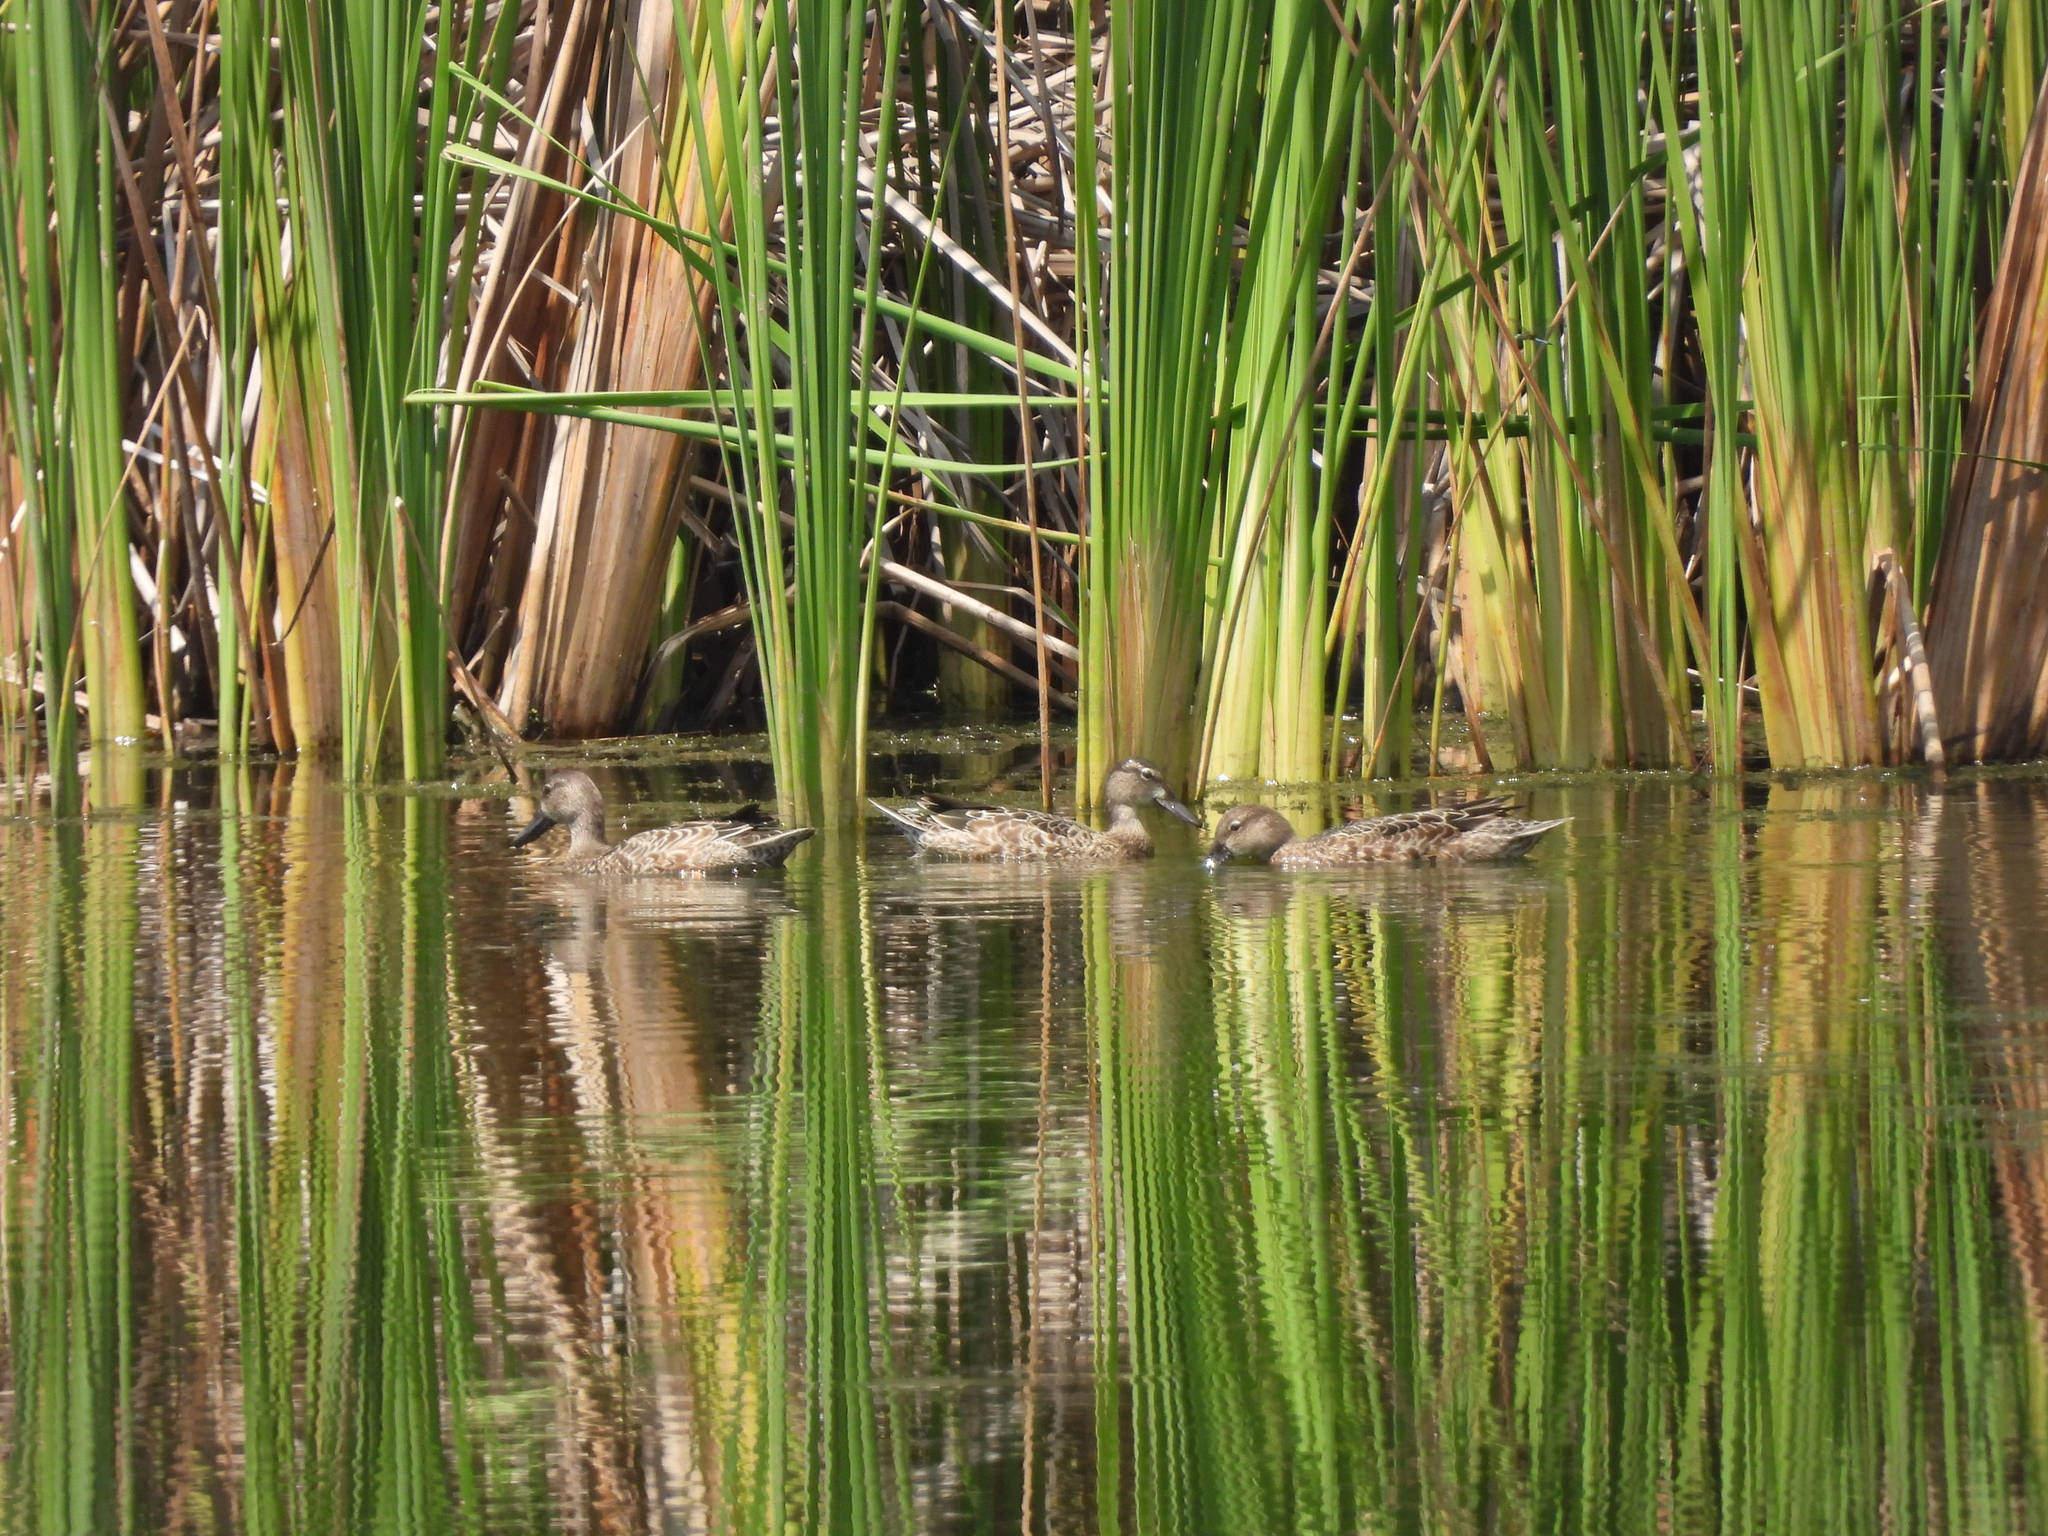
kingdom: Animalia
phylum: Chordata
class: Aves
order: Anseriformes
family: Anatidae
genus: Spatula
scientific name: Spatula discors
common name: Blue-winged teal
